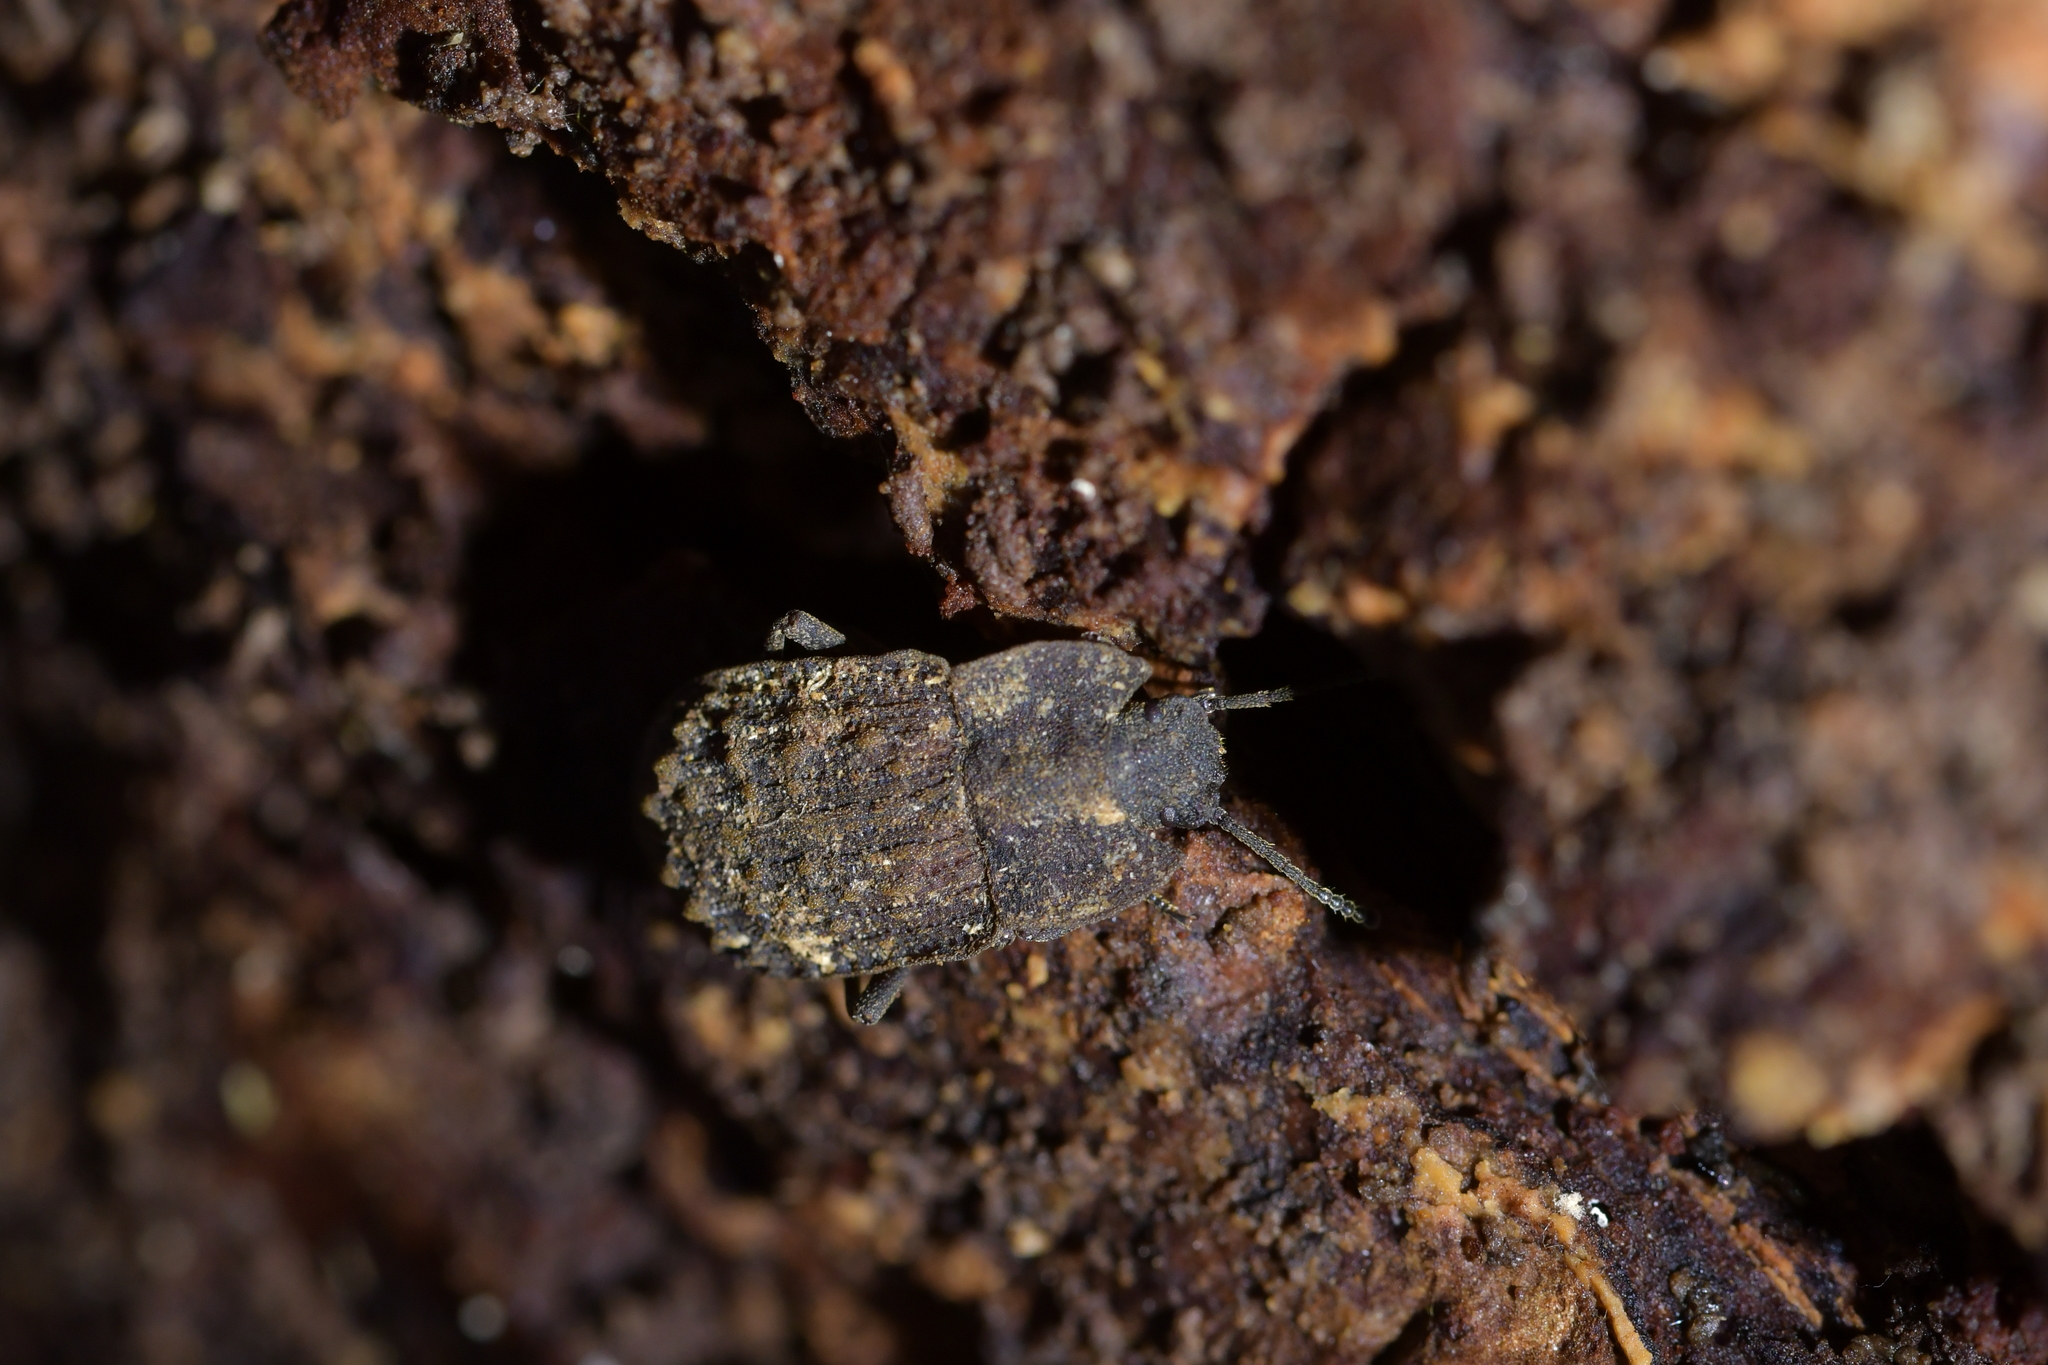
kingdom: Animalia
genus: Mitua
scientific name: Mitua
